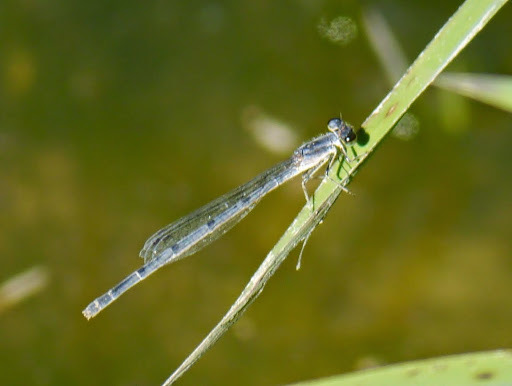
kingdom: Animalia
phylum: Arthropoda
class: Insecta
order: Odonata
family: Coenagrionidae
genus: Ischnura
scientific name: Ischnura posita
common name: Fragile forktail
